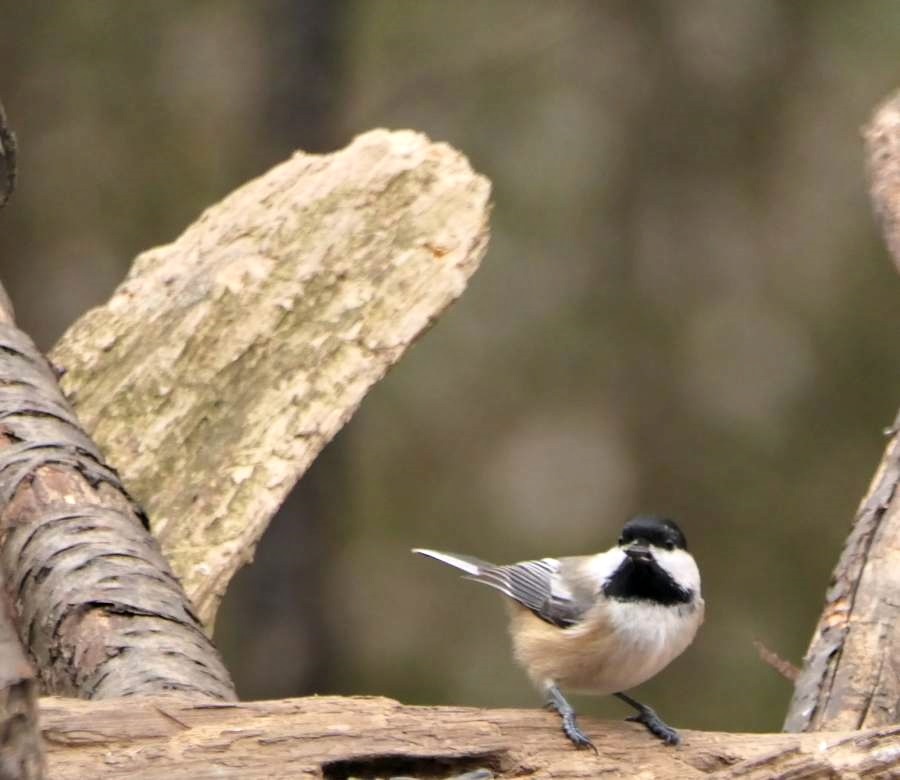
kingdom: Animalia
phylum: Chordata
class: Aves
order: Passeriformes
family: Paridae
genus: Poecile
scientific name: Poecile atricapillus
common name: Black-capped chickadee
